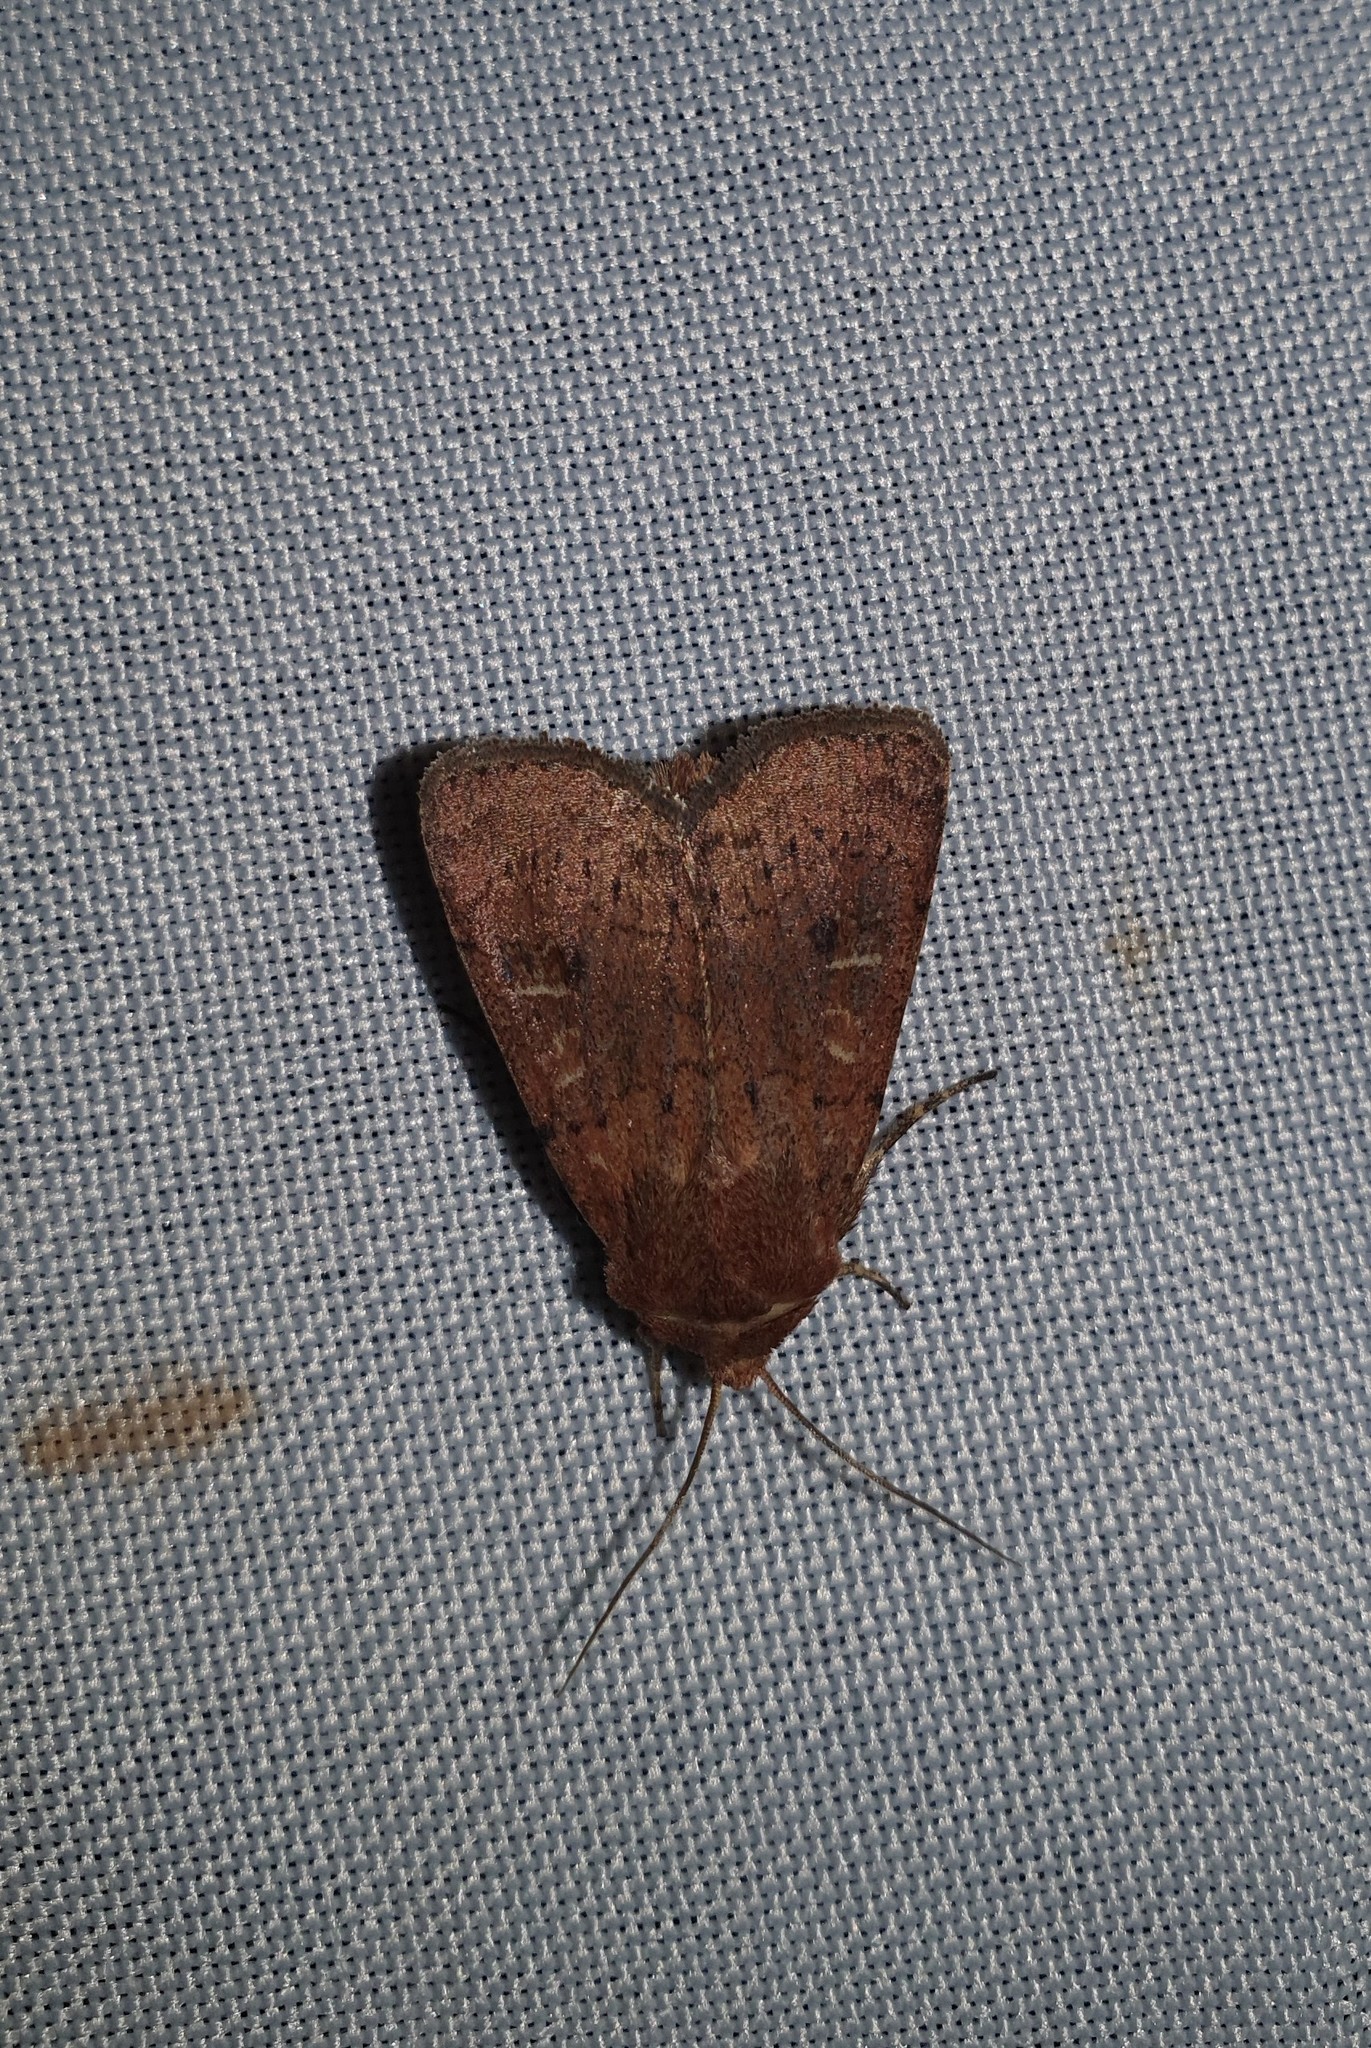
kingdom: Animalia
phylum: Arthropoda
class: Insecta
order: Lepidoptera
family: Noctuidae
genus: Xestia
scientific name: Xestia xanthographa
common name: Square-spot rustic
